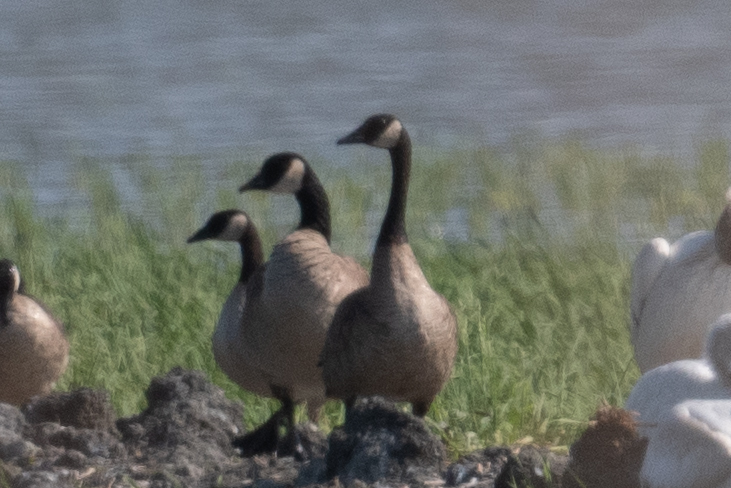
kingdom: Animalia
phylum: Chordata
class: Aves
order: Anseriformes
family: Anatidae
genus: Branta
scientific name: Branta canadensis
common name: Canada goose
